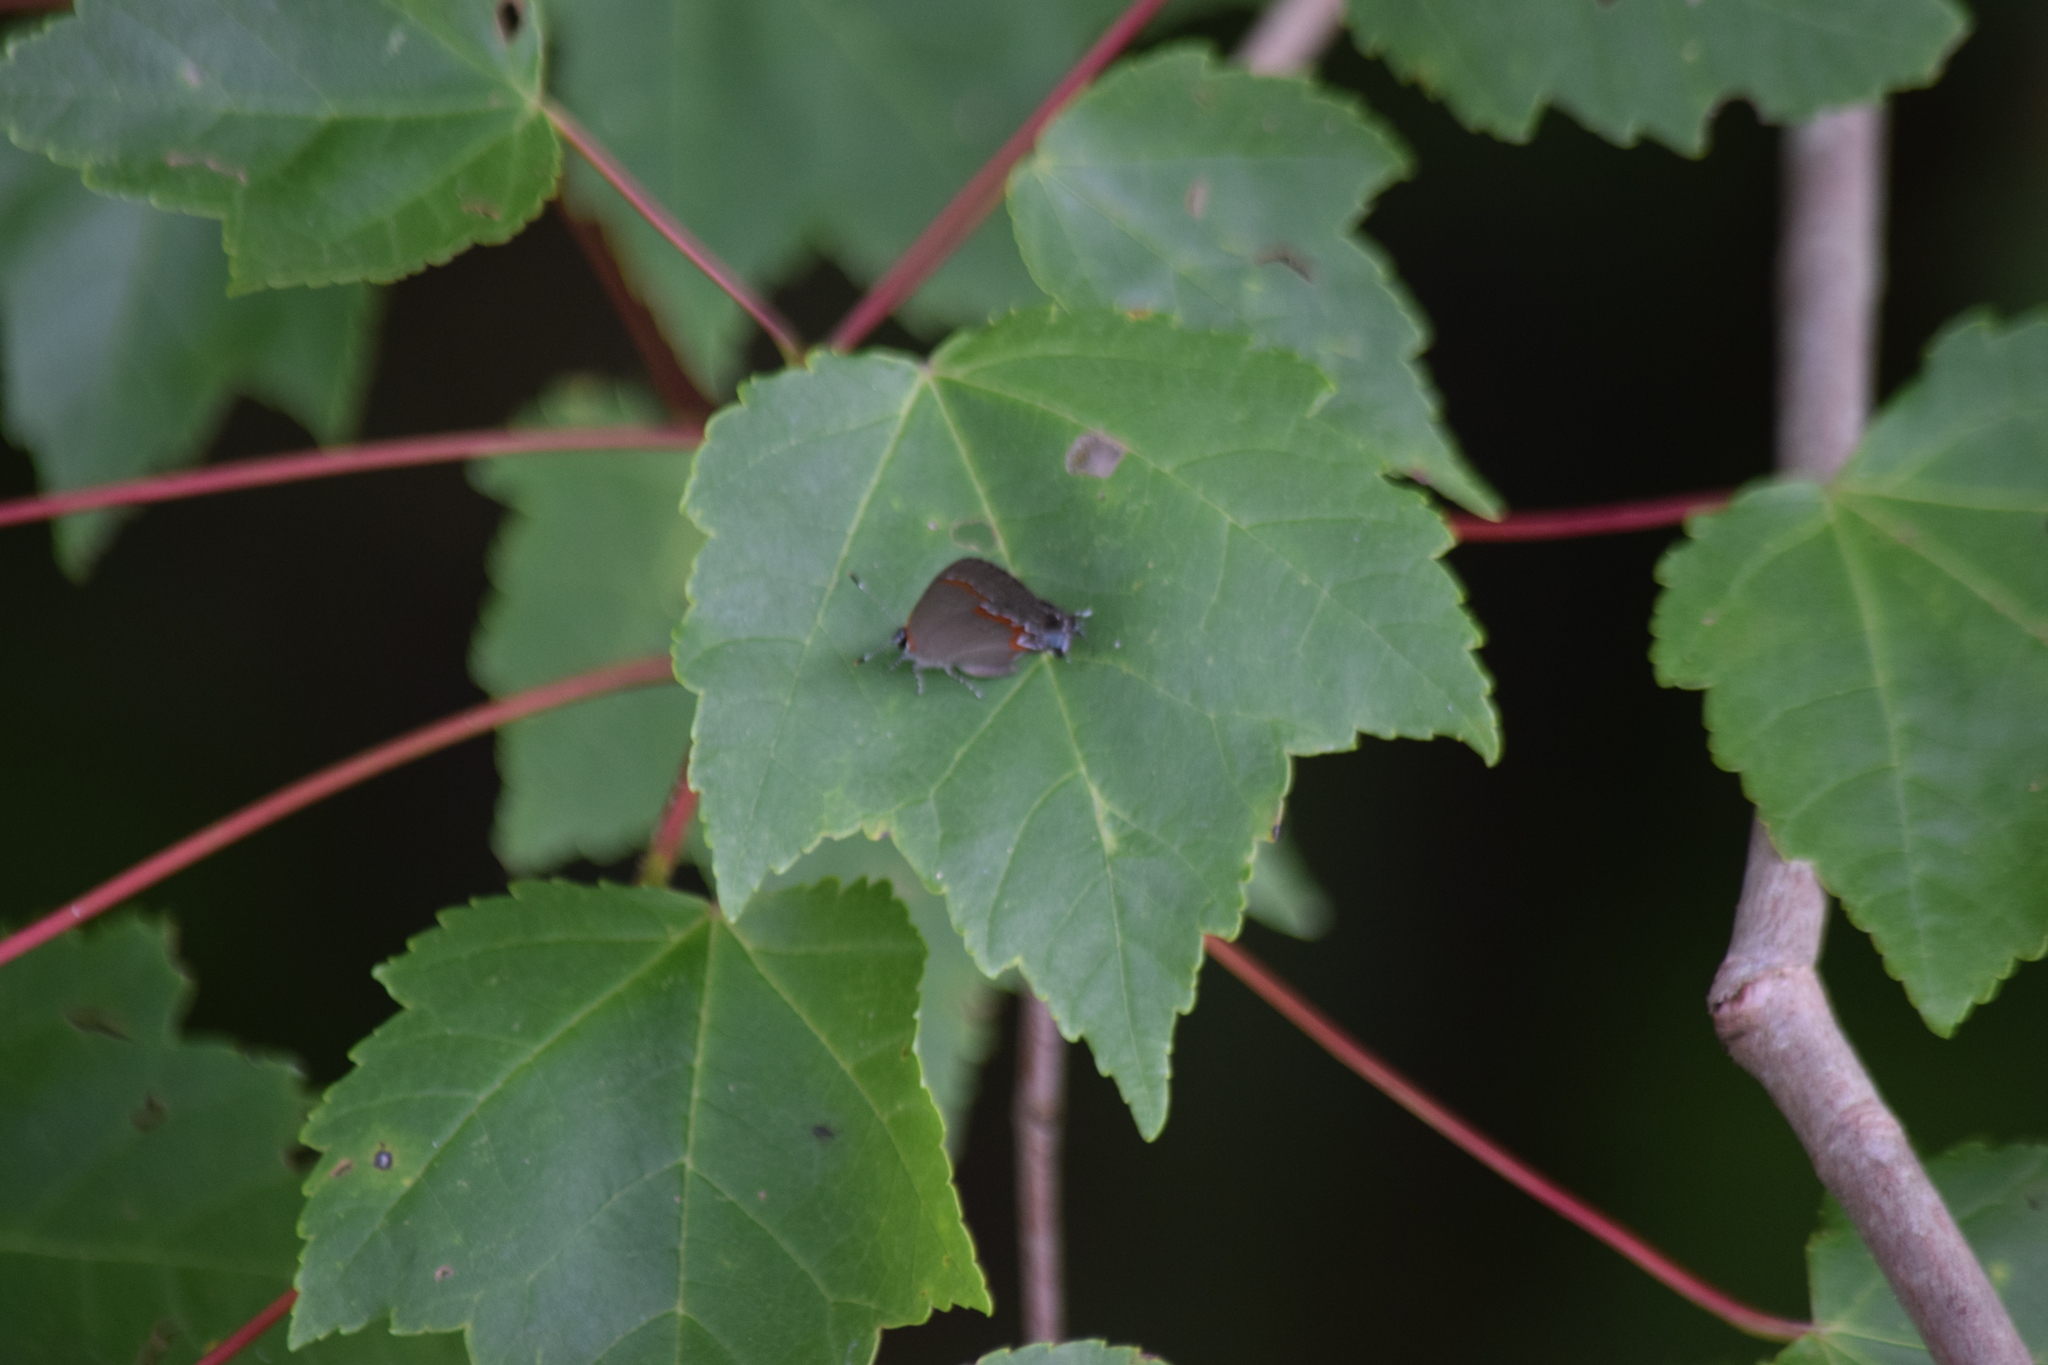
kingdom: Animalia
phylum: Arthropoda
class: Insecta
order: Lepidoptera
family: Lycaenidae
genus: Calycopis
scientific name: Calycopis cecrops
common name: Red-banded hairstreak
